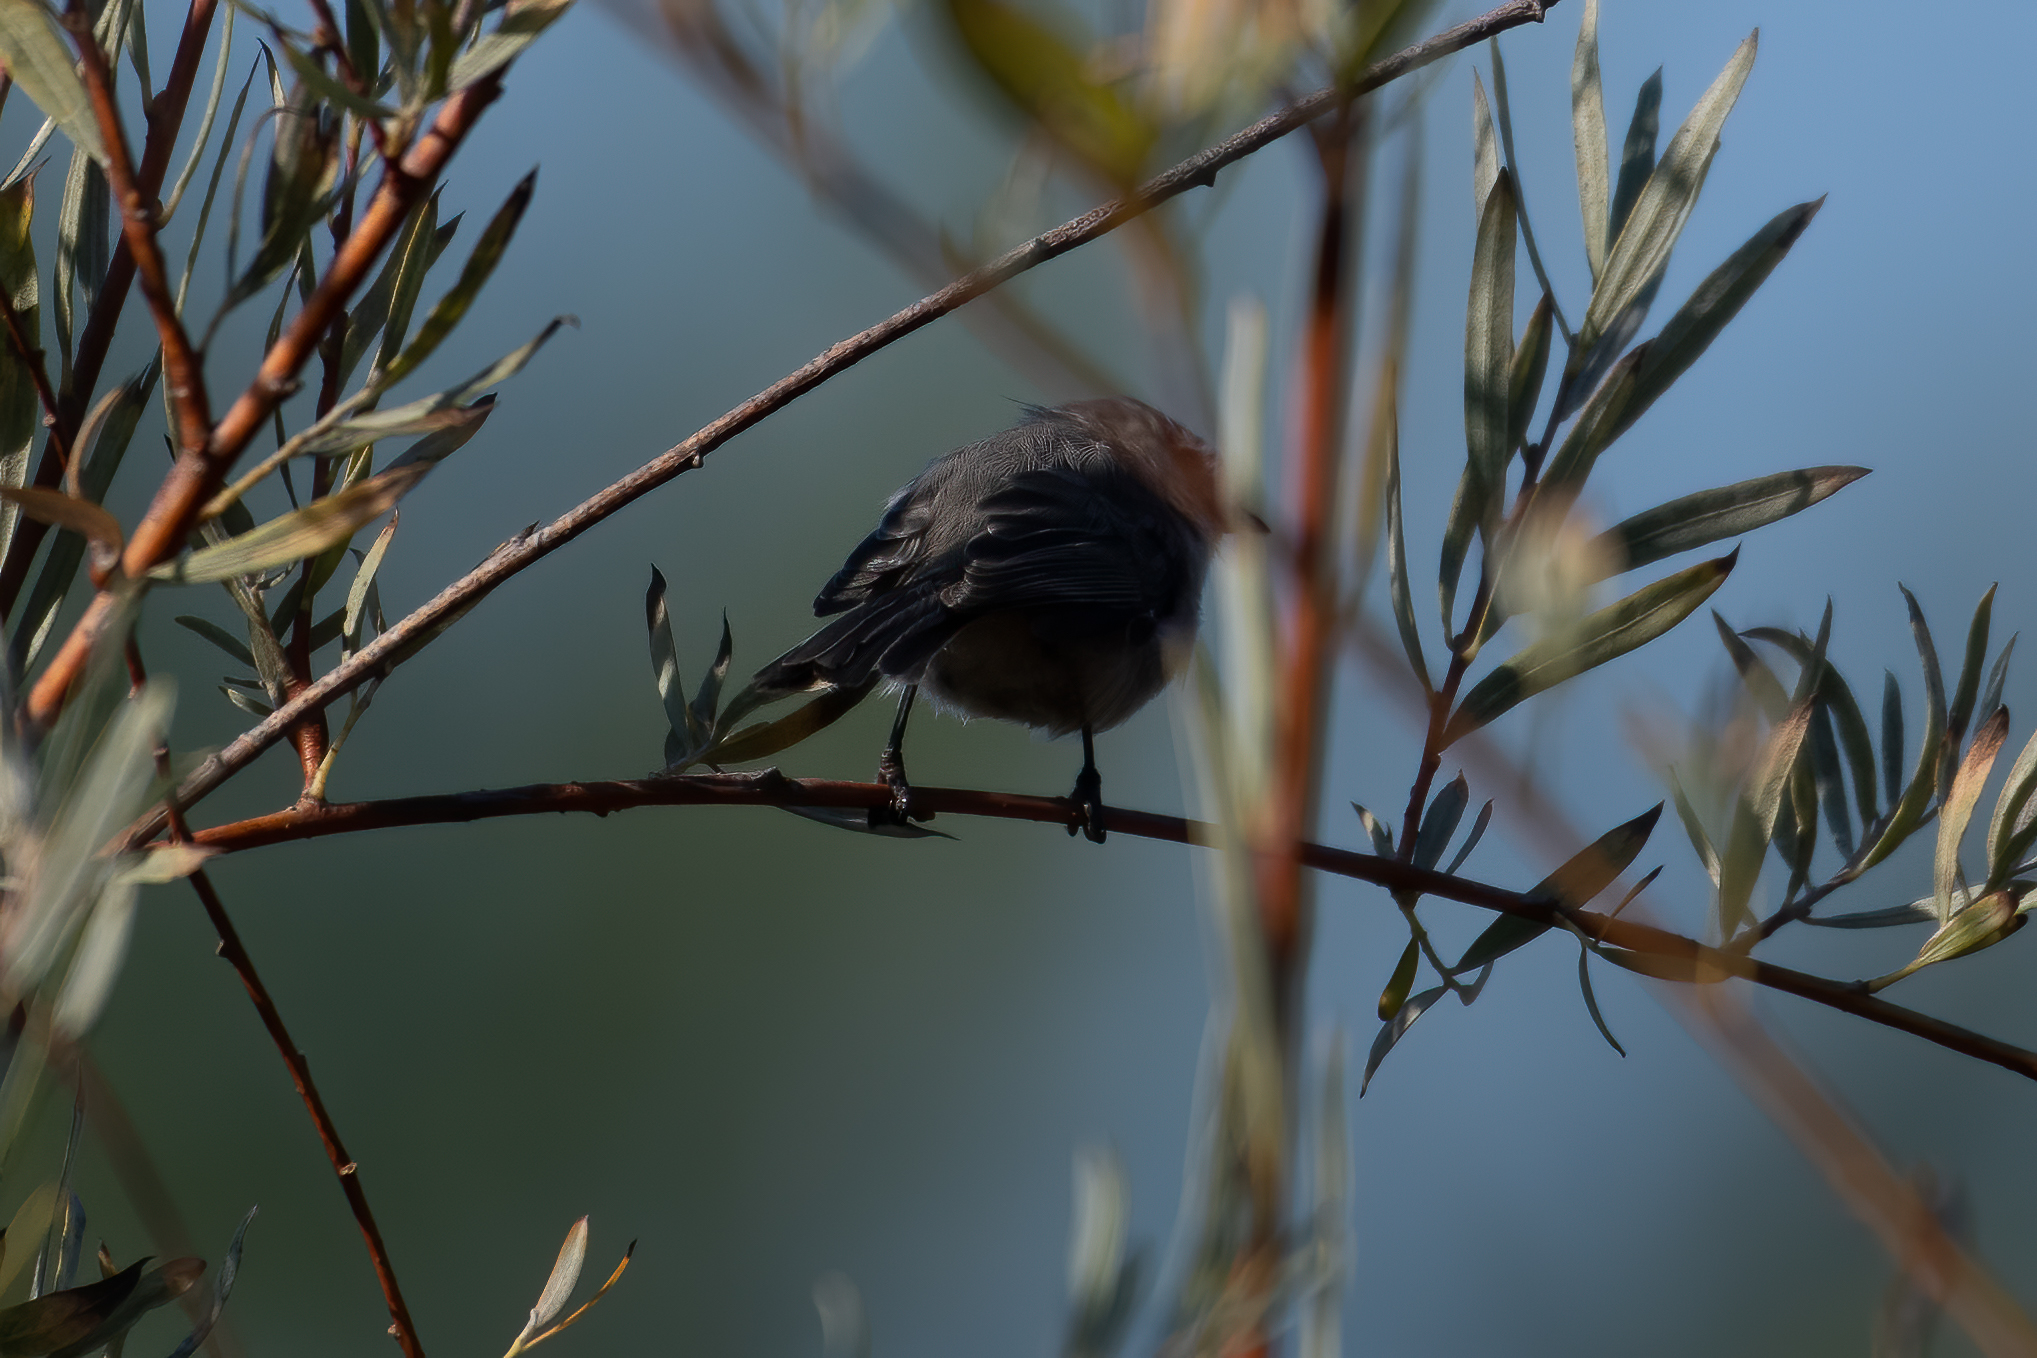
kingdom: Animalia
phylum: Chordata
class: Aves
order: Passeriformes
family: Aegithalidae
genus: Psaltriparus
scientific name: Psaltriparus minimus
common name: American bushtit
